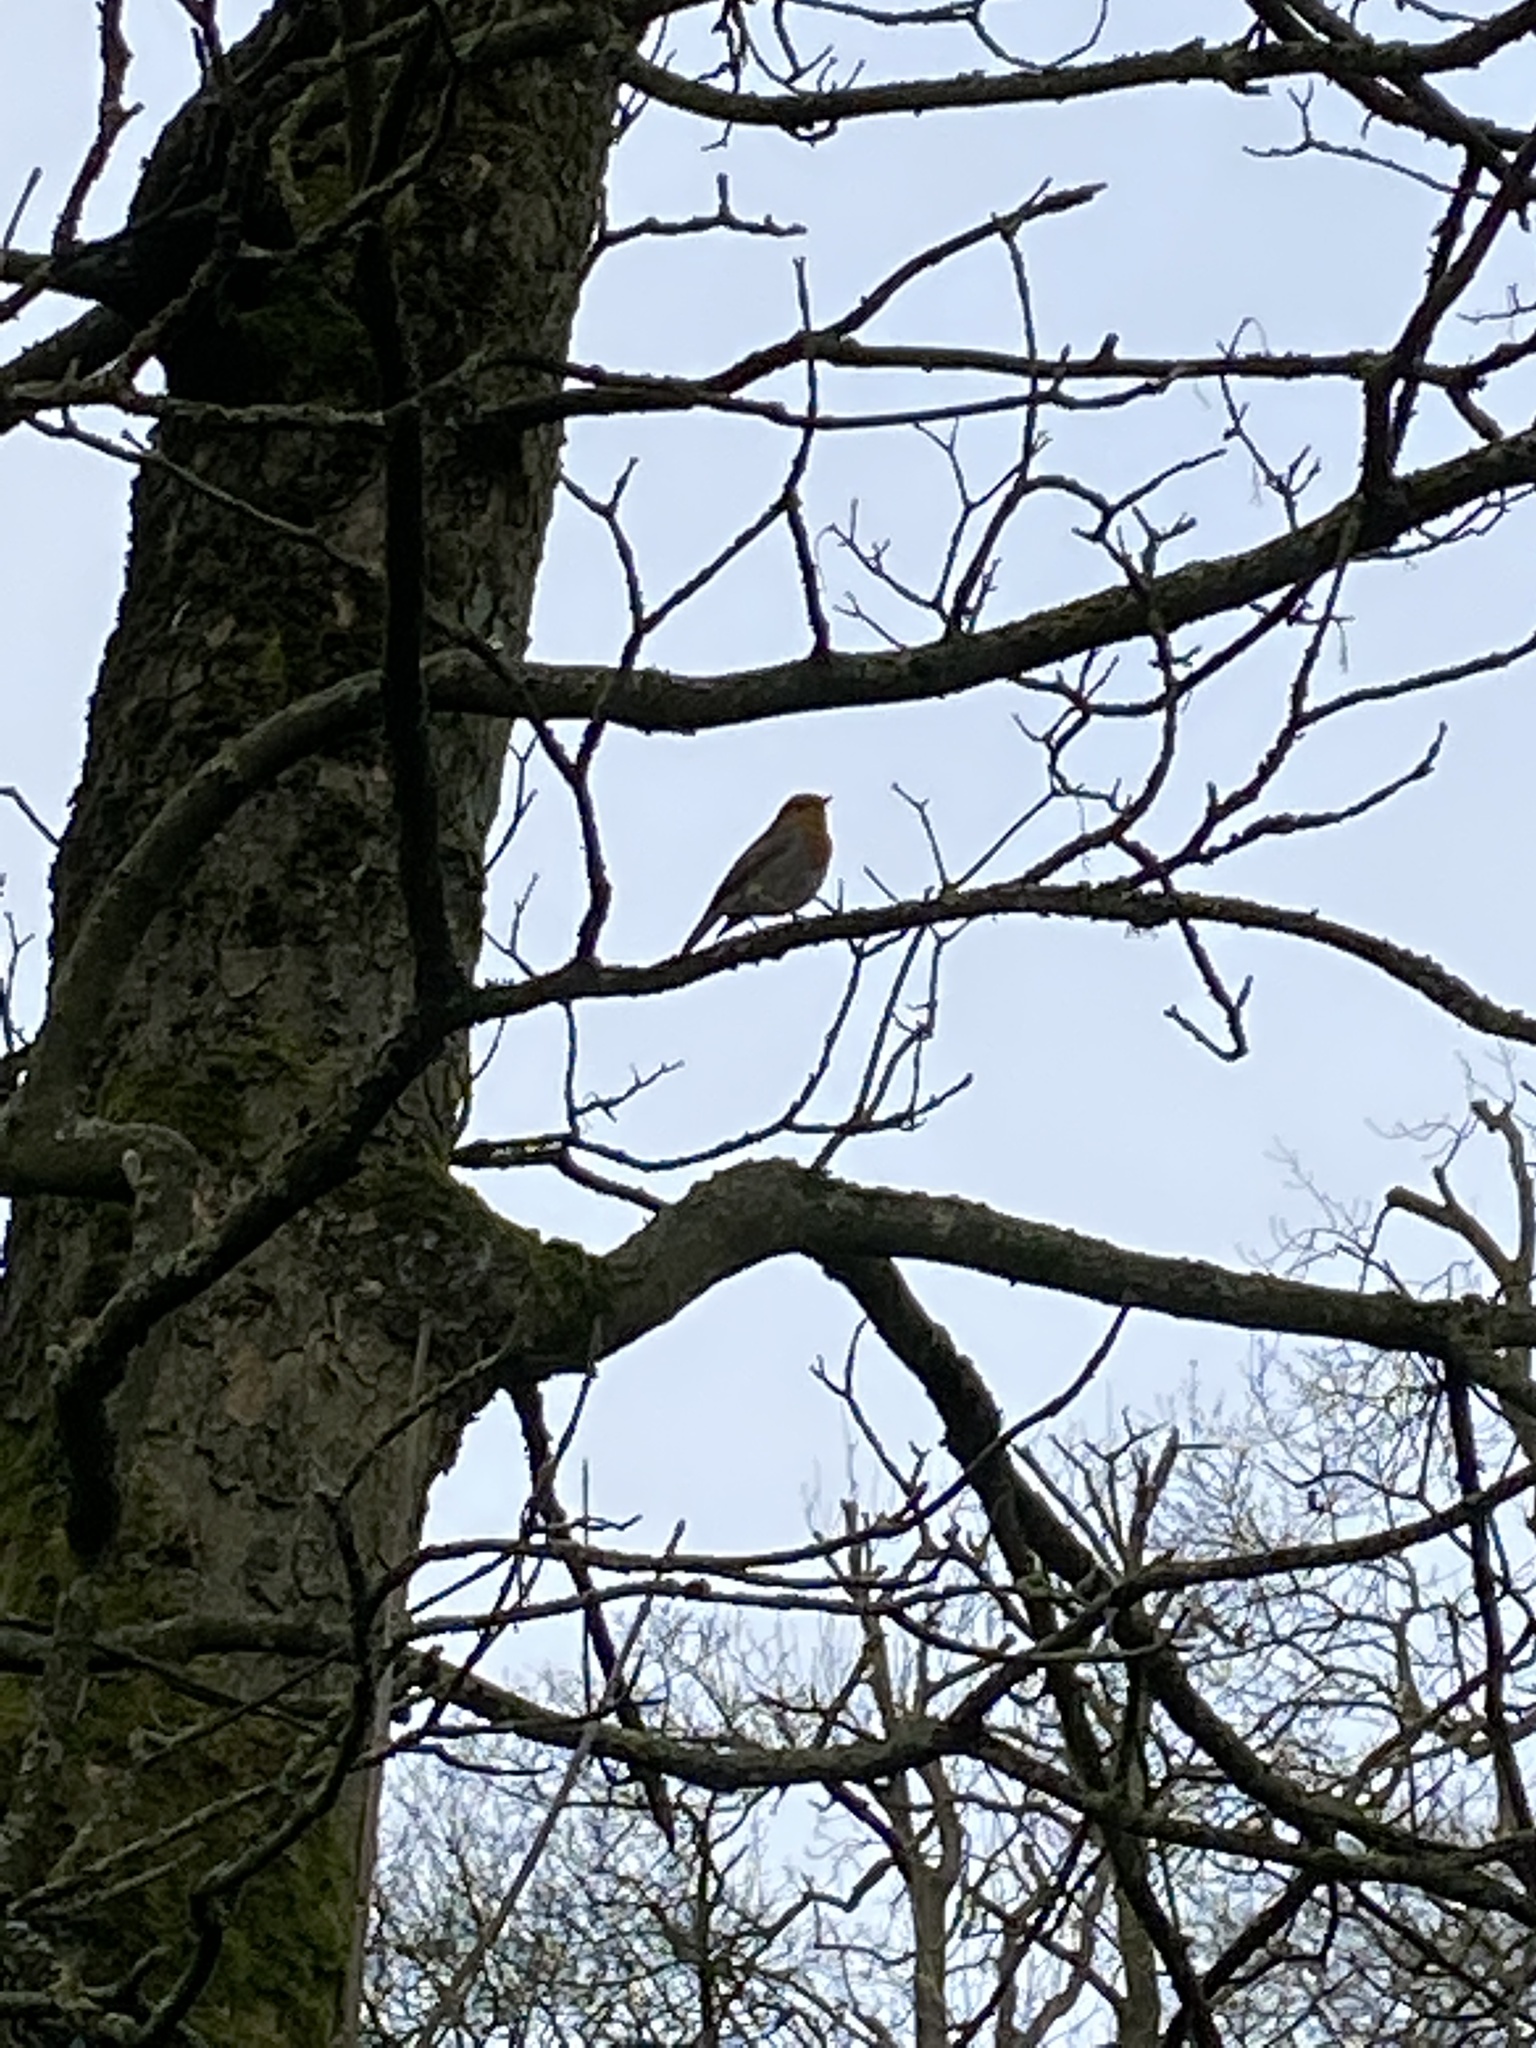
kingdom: Animalia
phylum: Chordata
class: Aves
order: Passeriformes
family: Muscicapidae
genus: Erithacus
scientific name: Erithacus rubecula
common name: European robin
